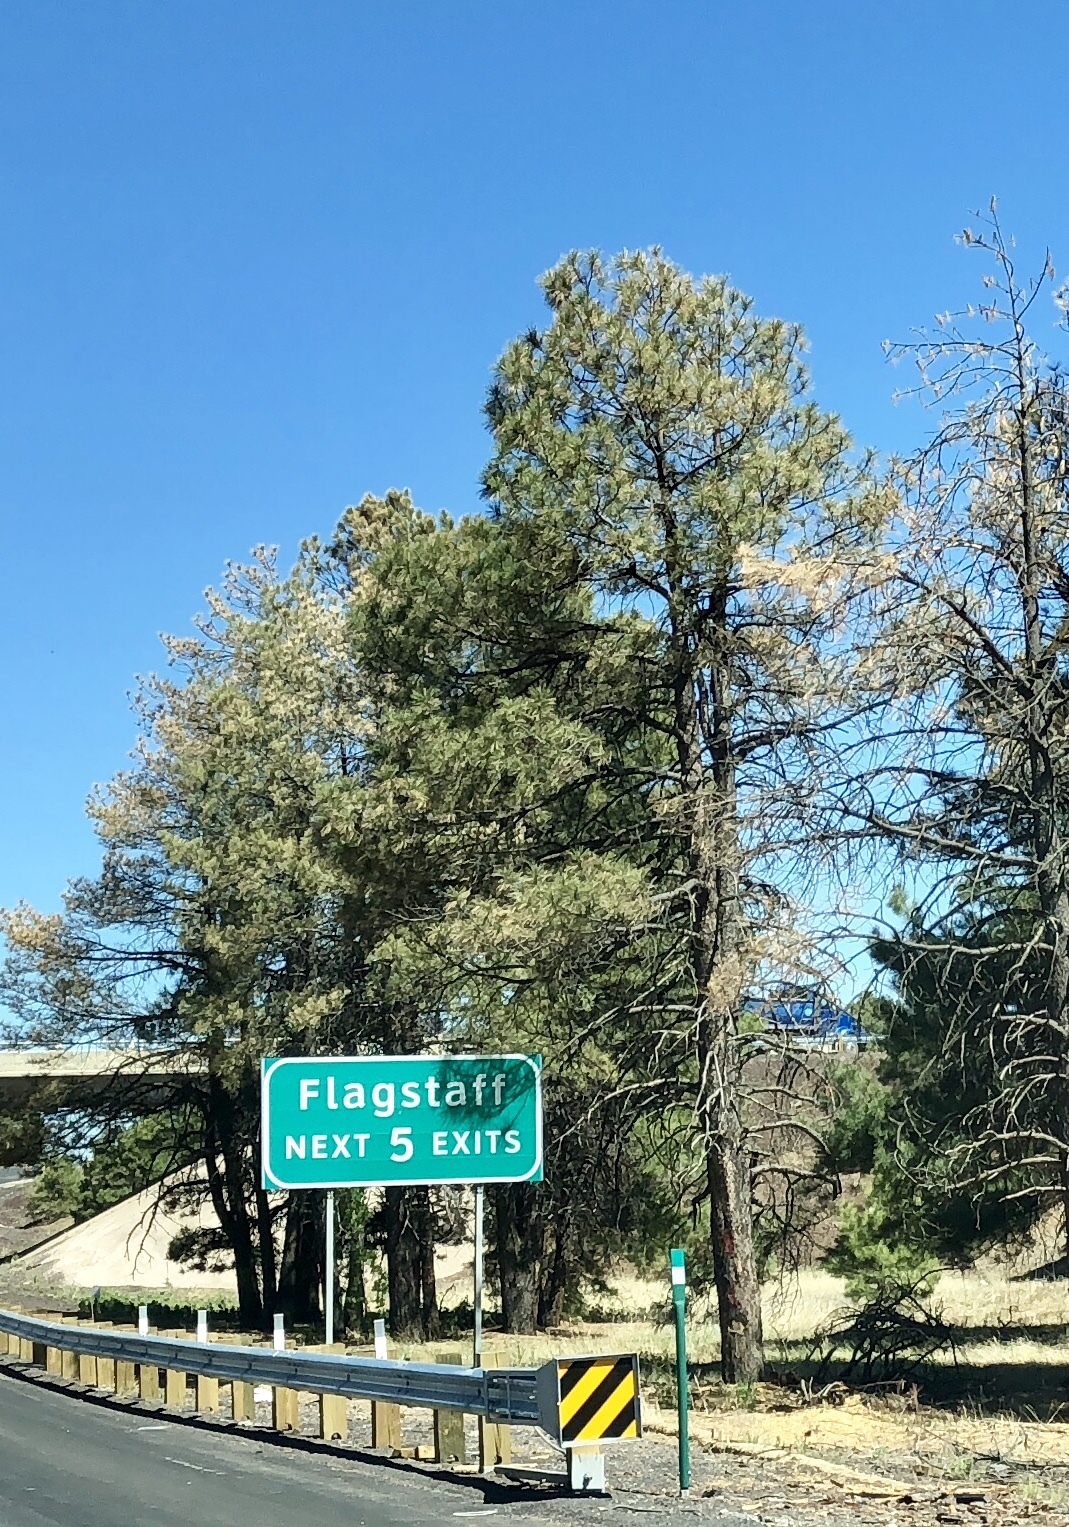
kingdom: Plantae
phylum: Tracheophyta
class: Pinopsida
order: Pinales
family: Pinaceae
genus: Pinus
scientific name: Pinus ponderosa
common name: Western yellow-pine
